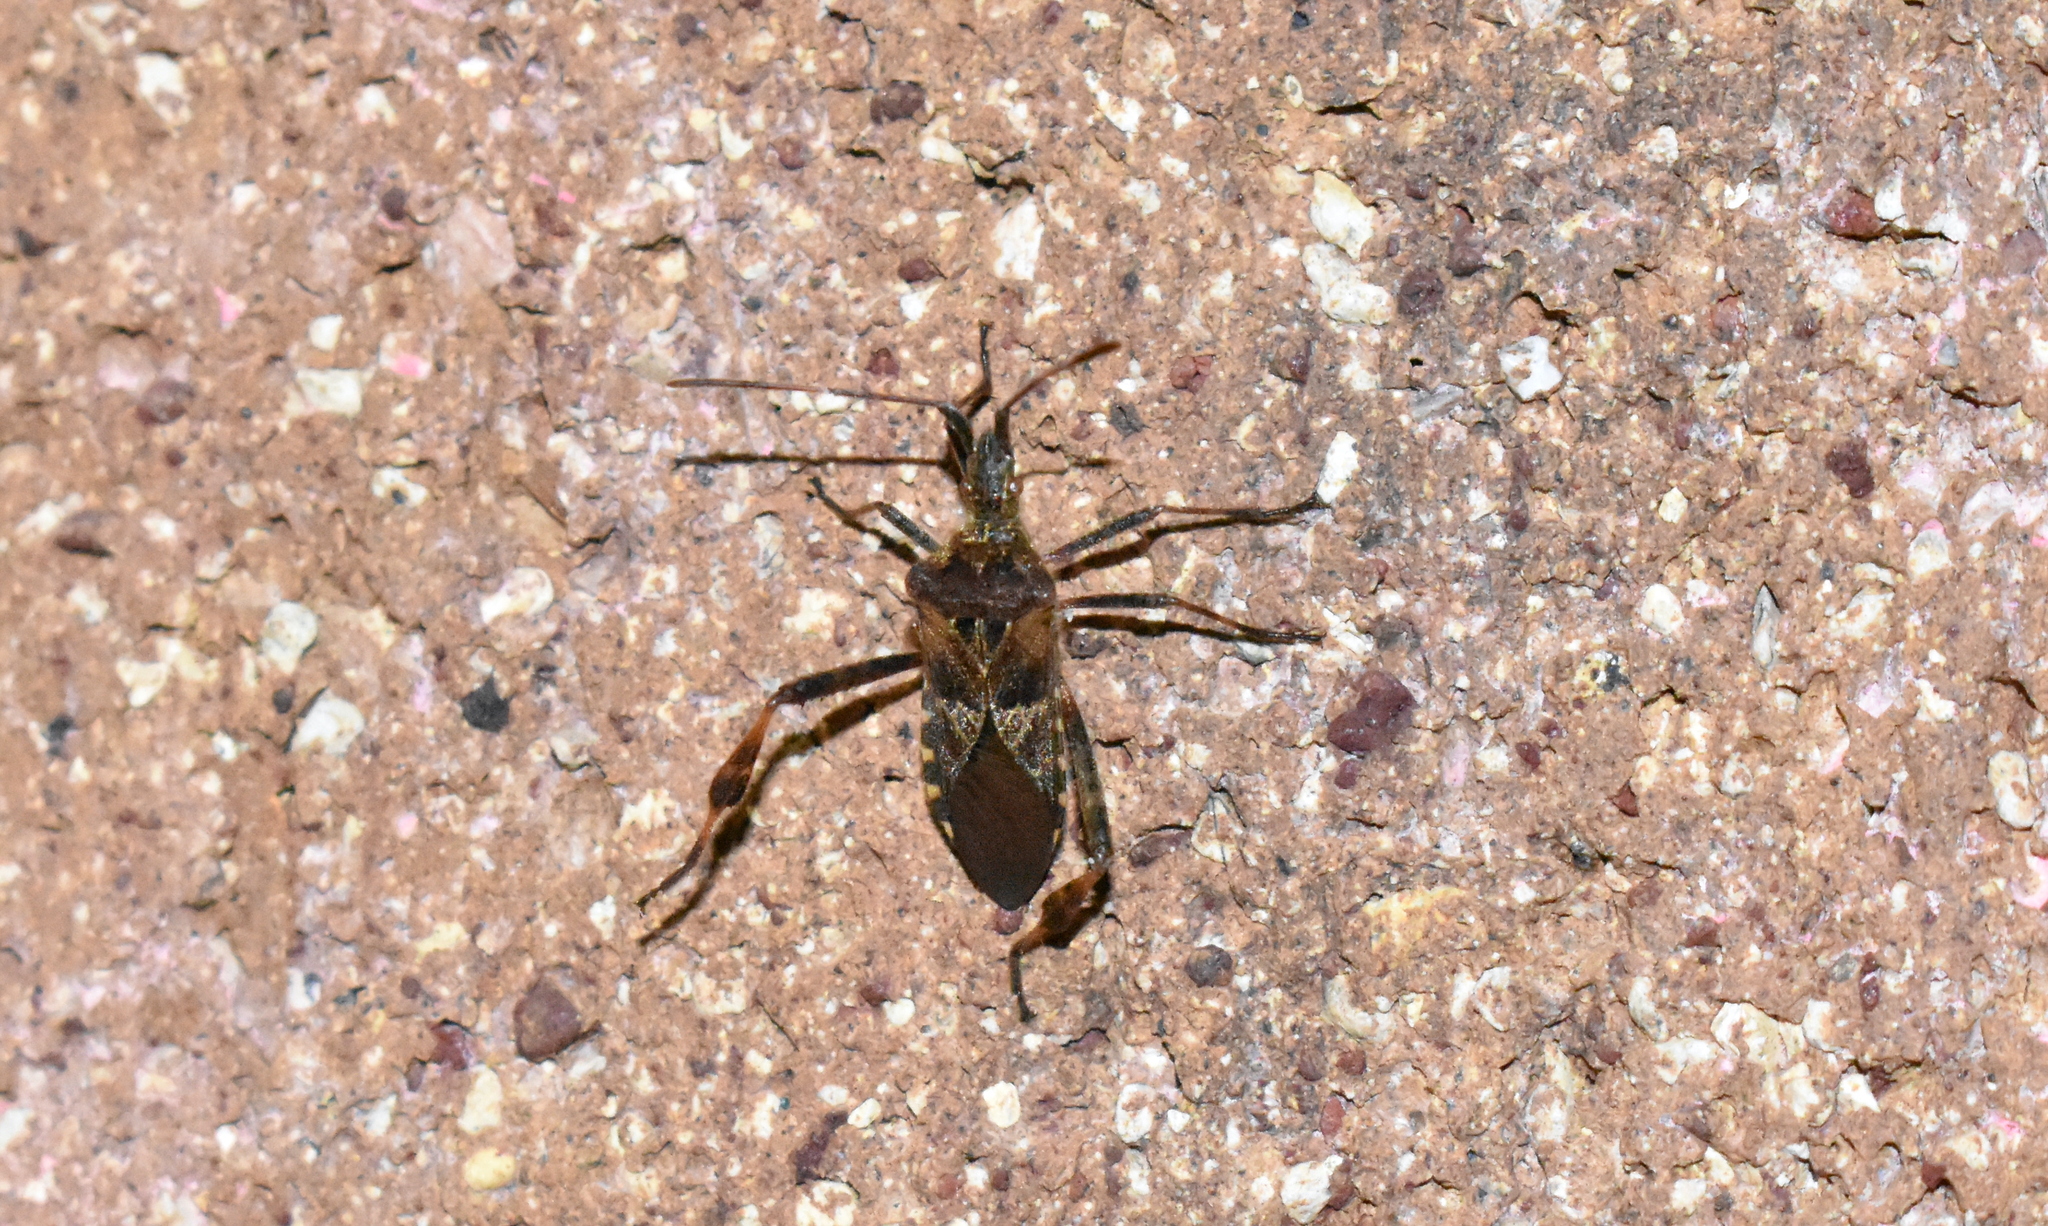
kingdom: Animalia
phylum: Arthropoda
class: Insecta
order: Hemiptera
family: Coreidae
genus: Leptoglossus
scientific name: Leptoglossus occidentalis
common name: Western conifer-seed bug
